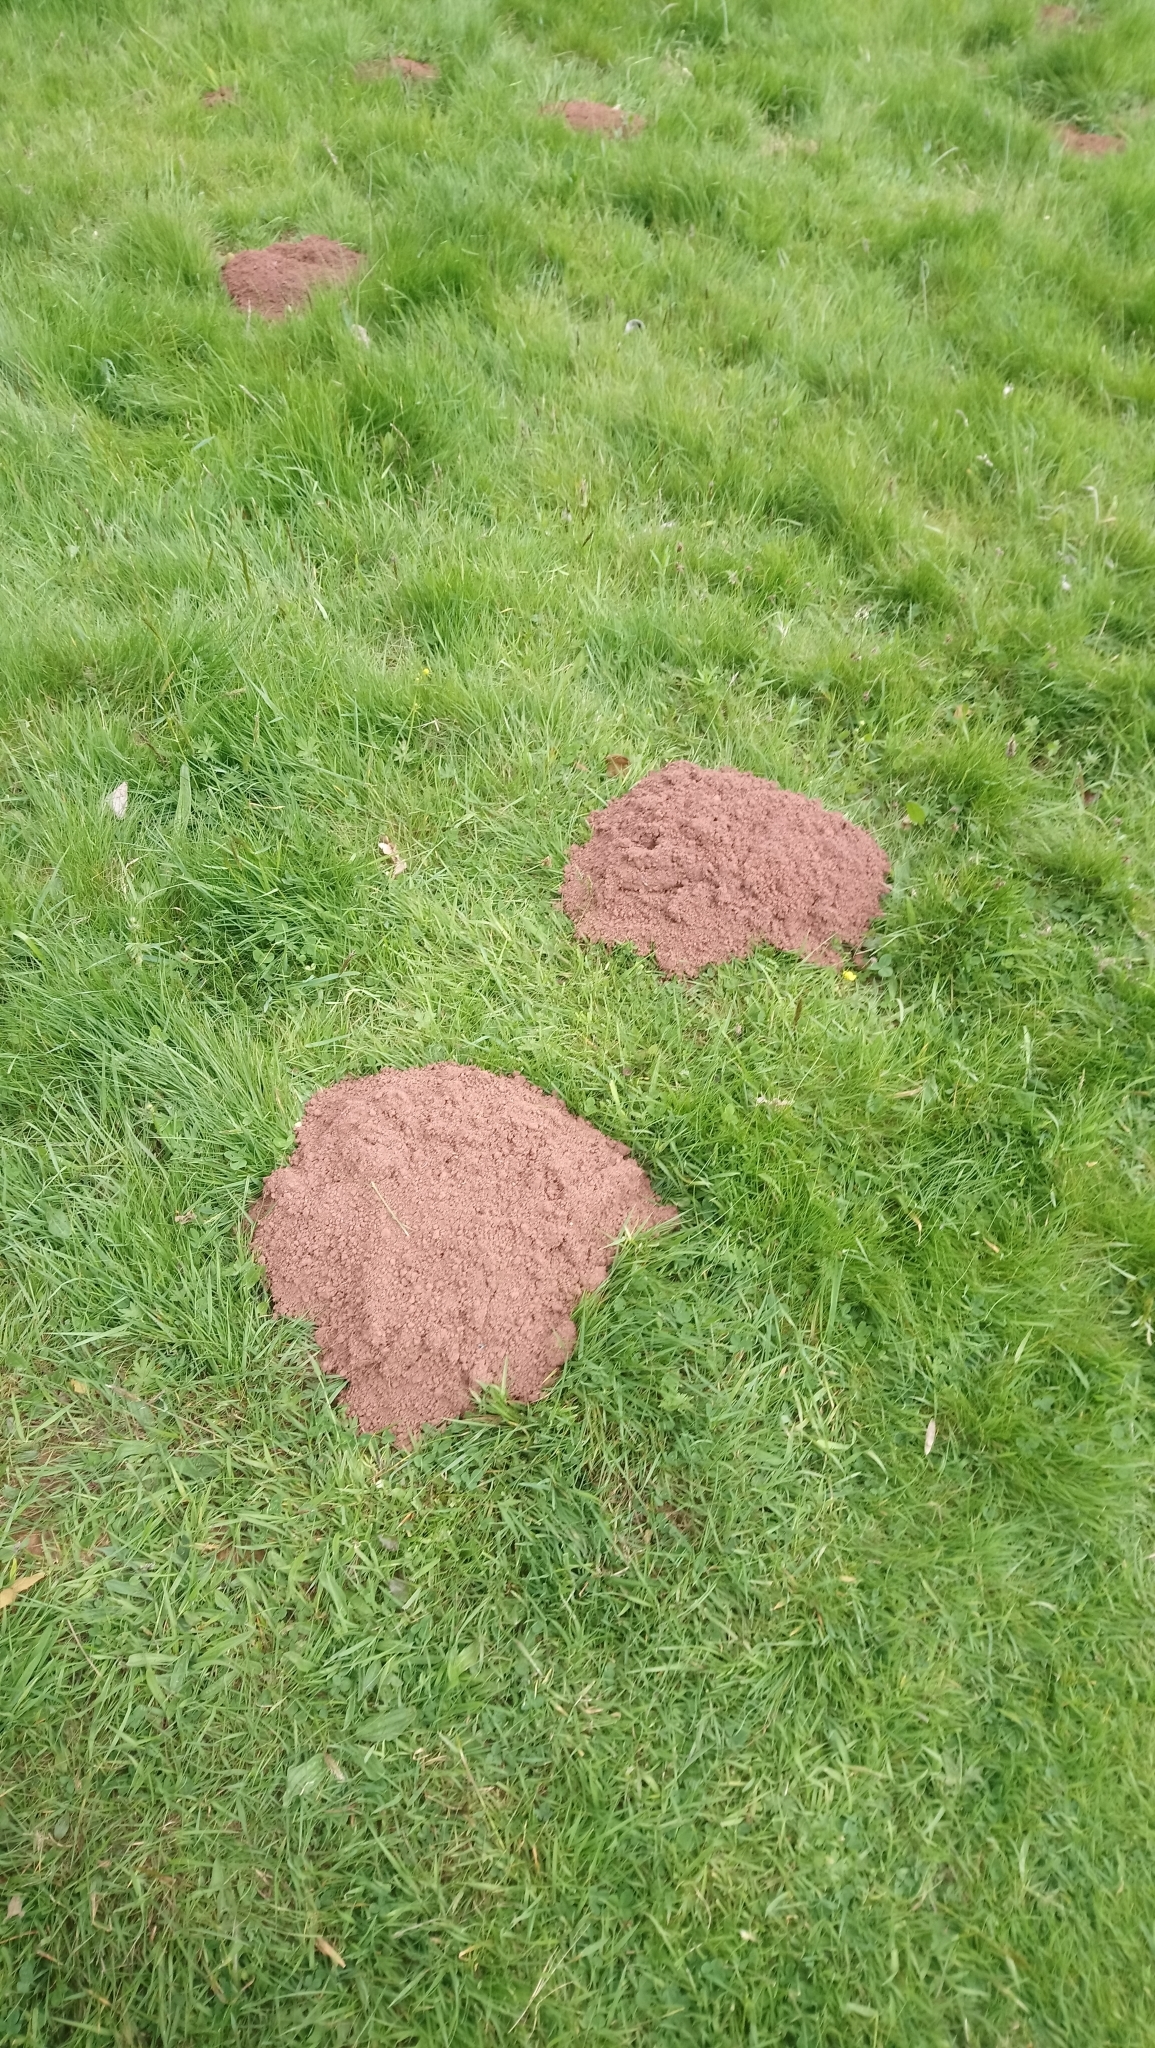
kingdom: Animalia
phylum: Chordata
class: Mammalia
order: Soricomorpha
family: Talpidae
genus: Talpa
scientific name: Talpa europaea
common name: European mole
